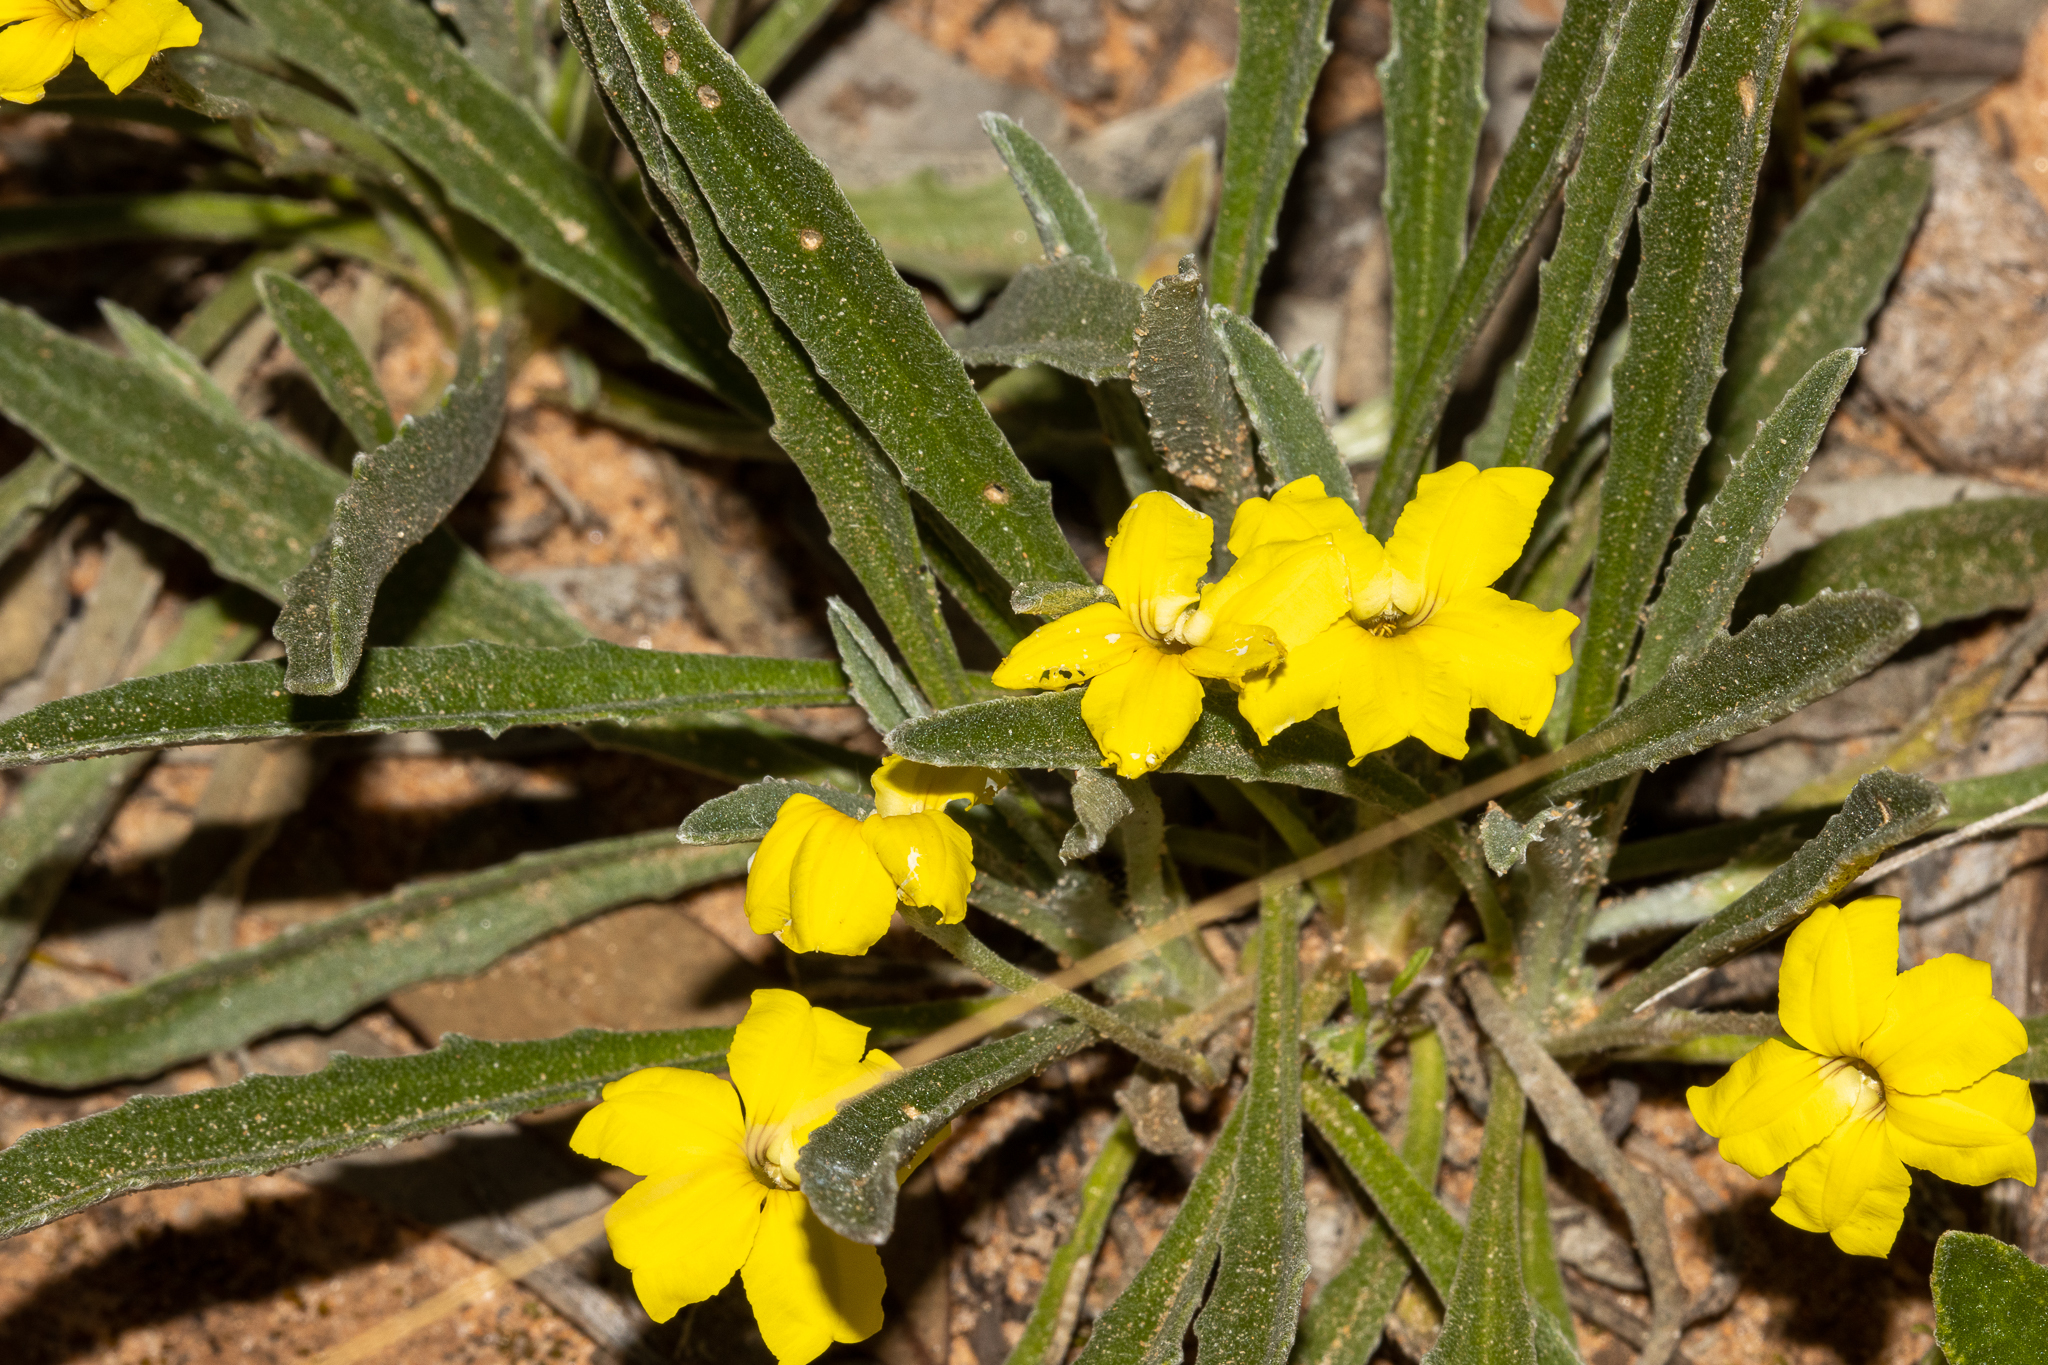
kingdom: Plantae
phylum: Tracheophyta
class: Magnoliopsida
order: Asterales
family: Goodeniaceae
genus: Goodenia
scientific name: Goodenia willisiana
